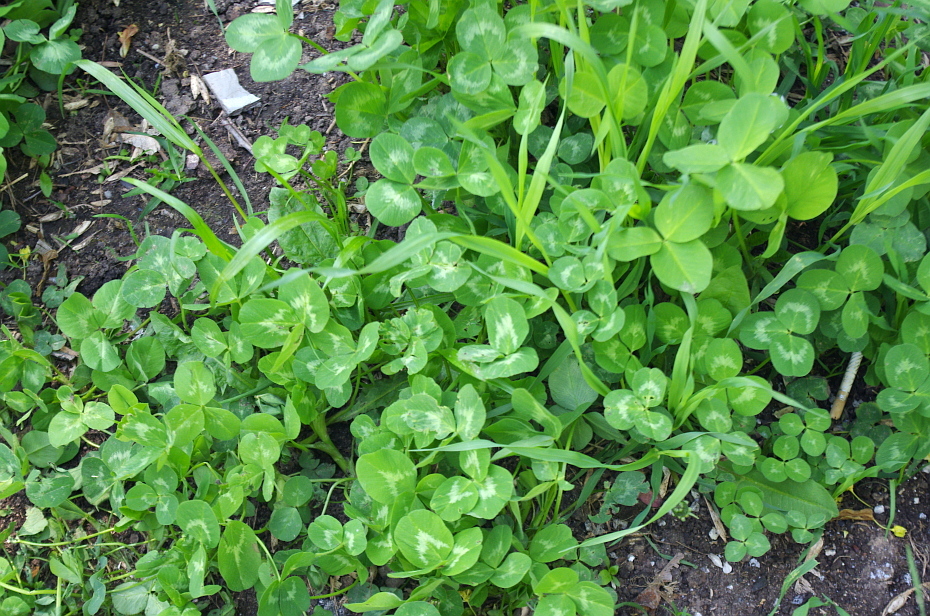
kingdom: Plantae
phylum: Tracheophyta
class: Magnoliopsida
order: Fabales
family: Fabaceae
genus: Trifolium
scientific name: Trifolium pratense
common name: Red clover
